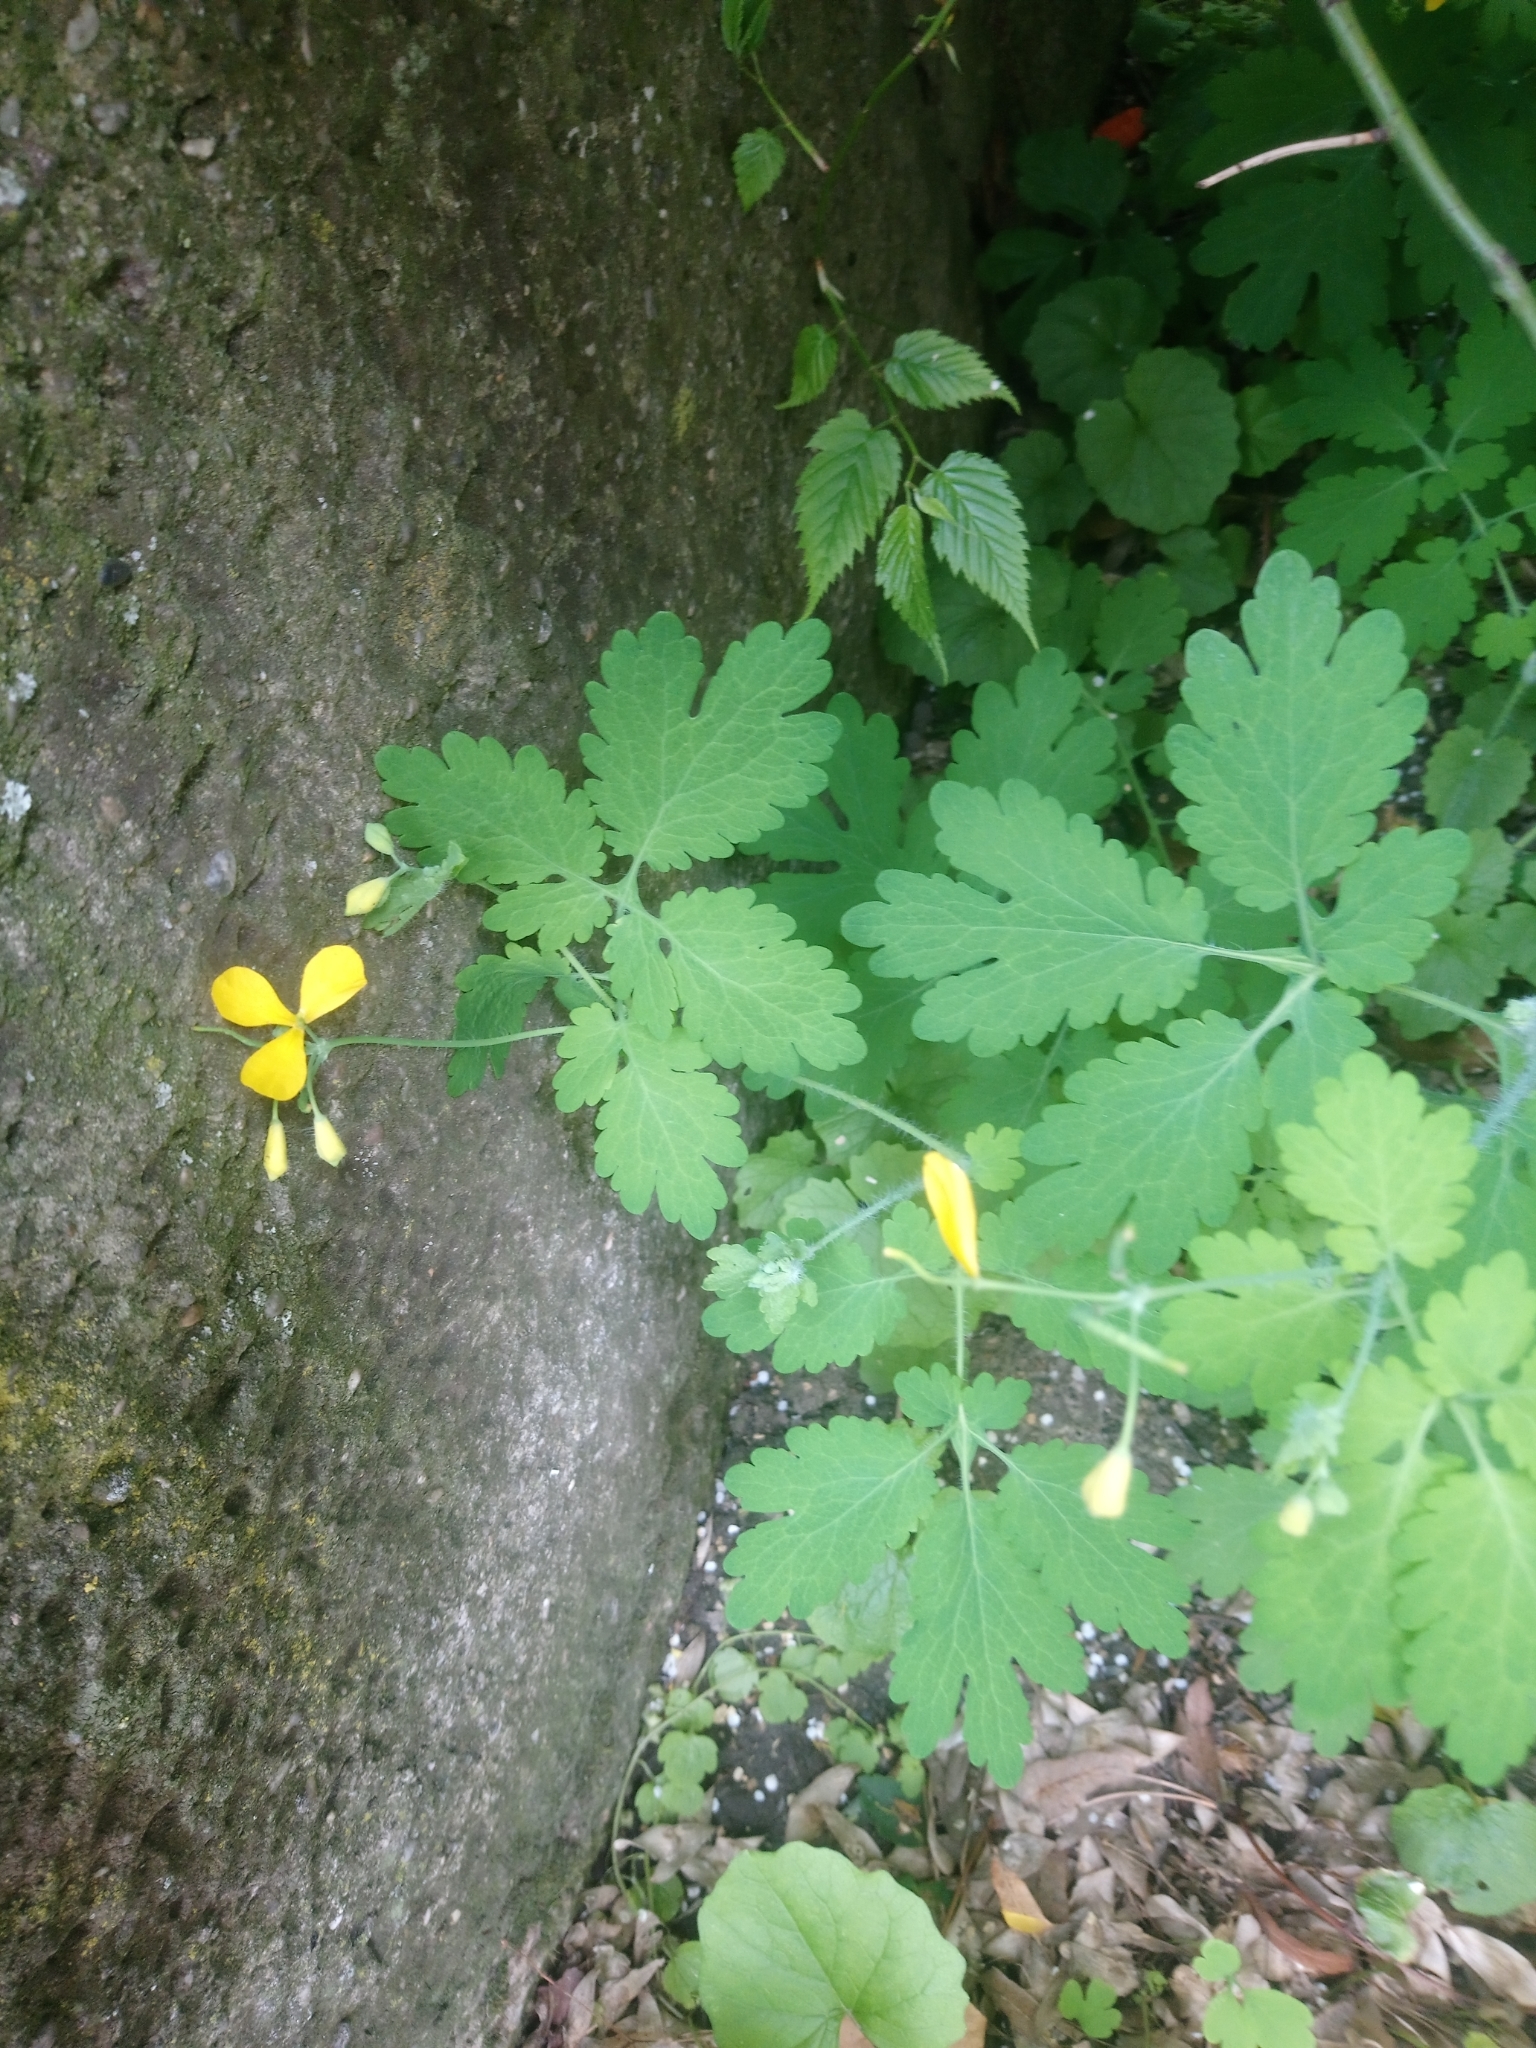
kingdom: Plantae
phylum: Tracheophyta
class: Magnoliopsida
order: Ranunculales
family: Papaveraceae
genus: Chelidonium
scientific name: Chelidonium majus
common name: Greater celandine
